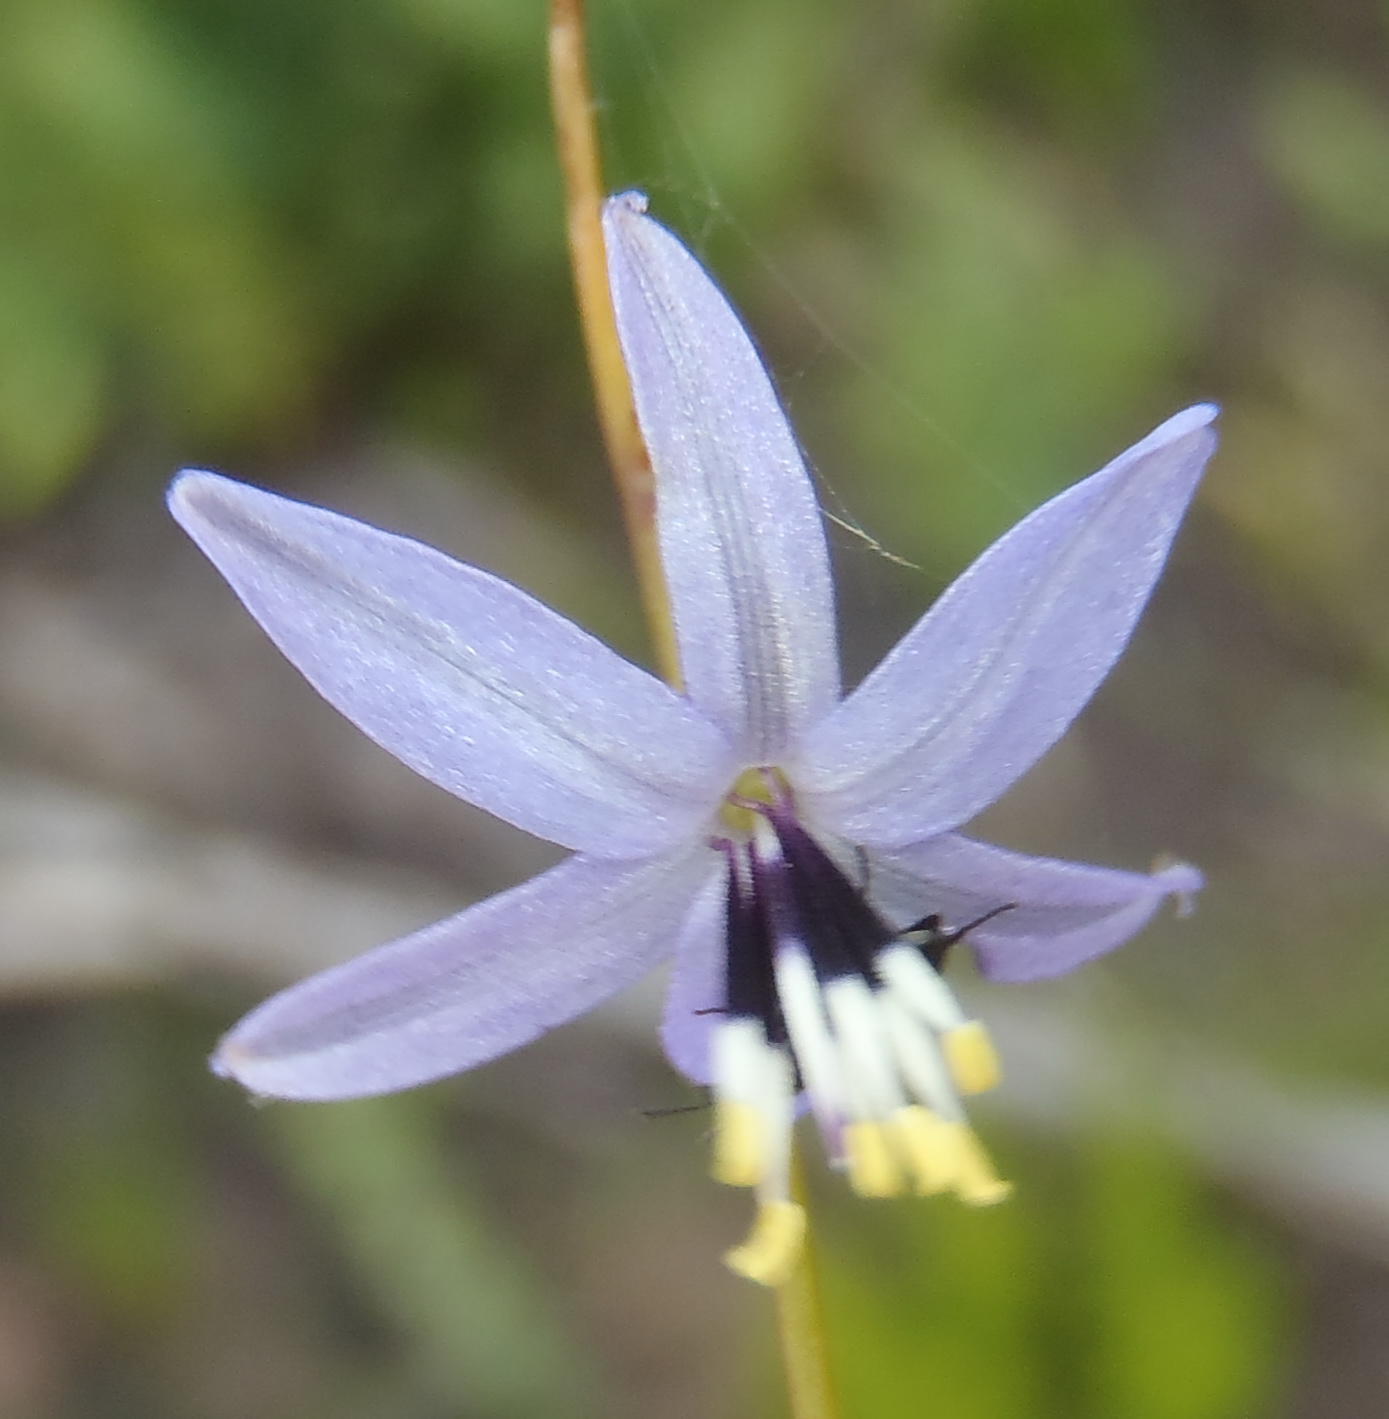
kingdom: Plantae
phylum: Tracheophyta
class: Liliopsida
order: Asparagales
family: Asphodelaceae
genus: Caesia
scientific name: Caesia contorta
